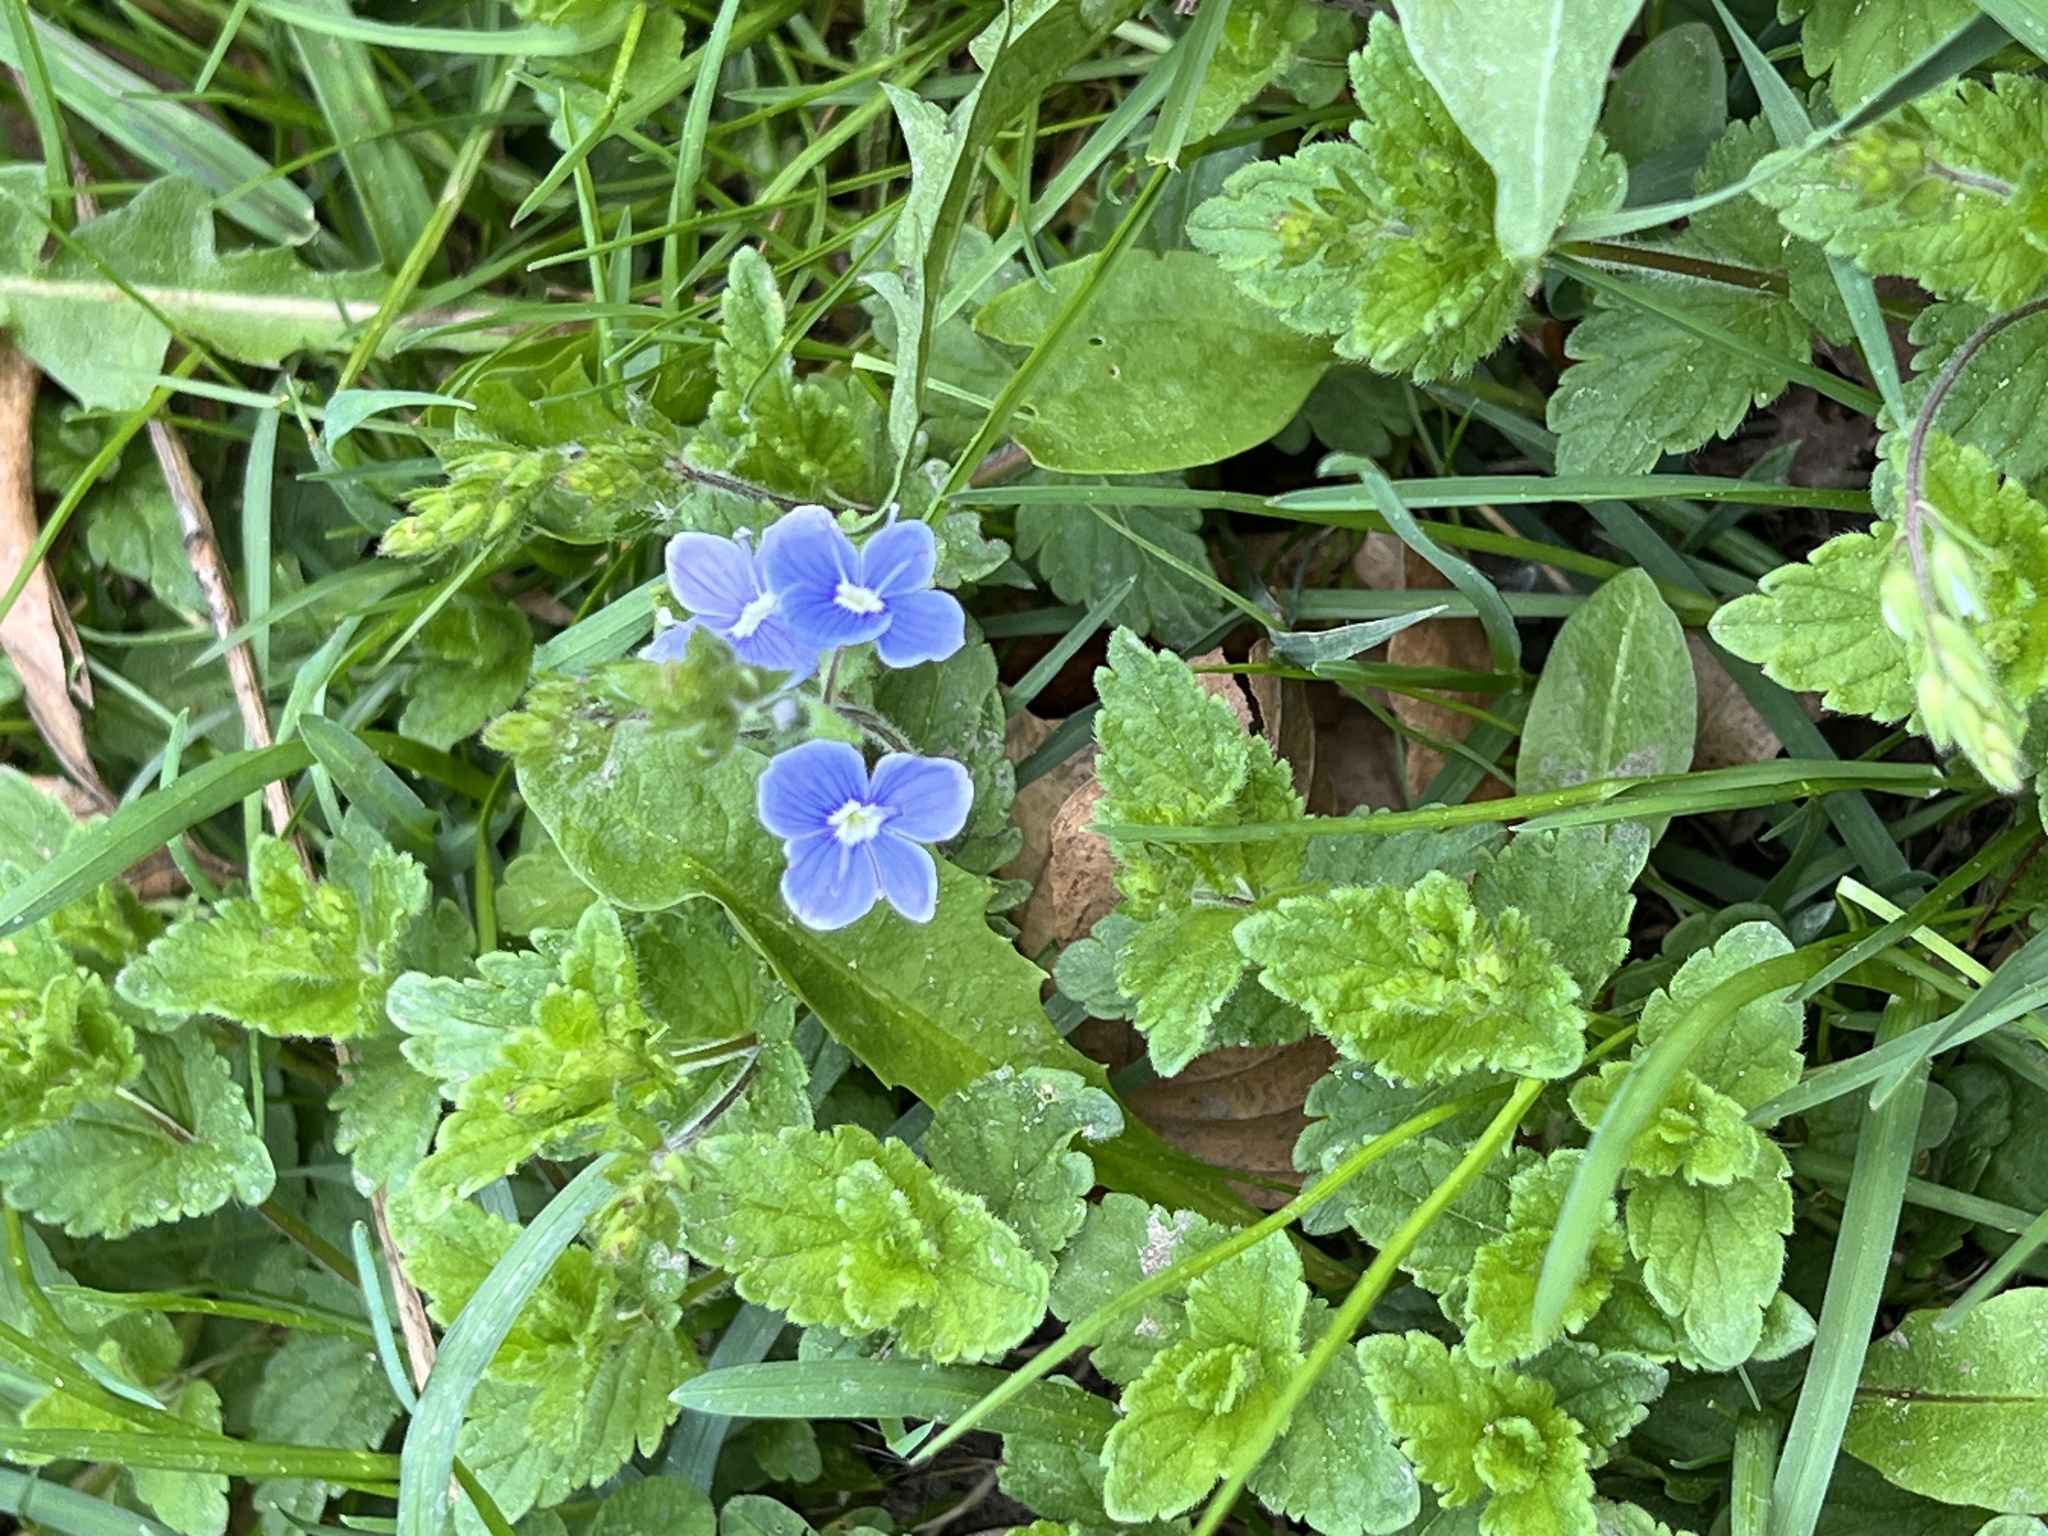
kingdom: Plantae
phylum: Tracheophyta
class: Magnoliopsida
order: Lamiales
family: Plantaginaceae
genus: Veronica
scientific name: Veronica chamaedrys
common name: Germander speedwell
